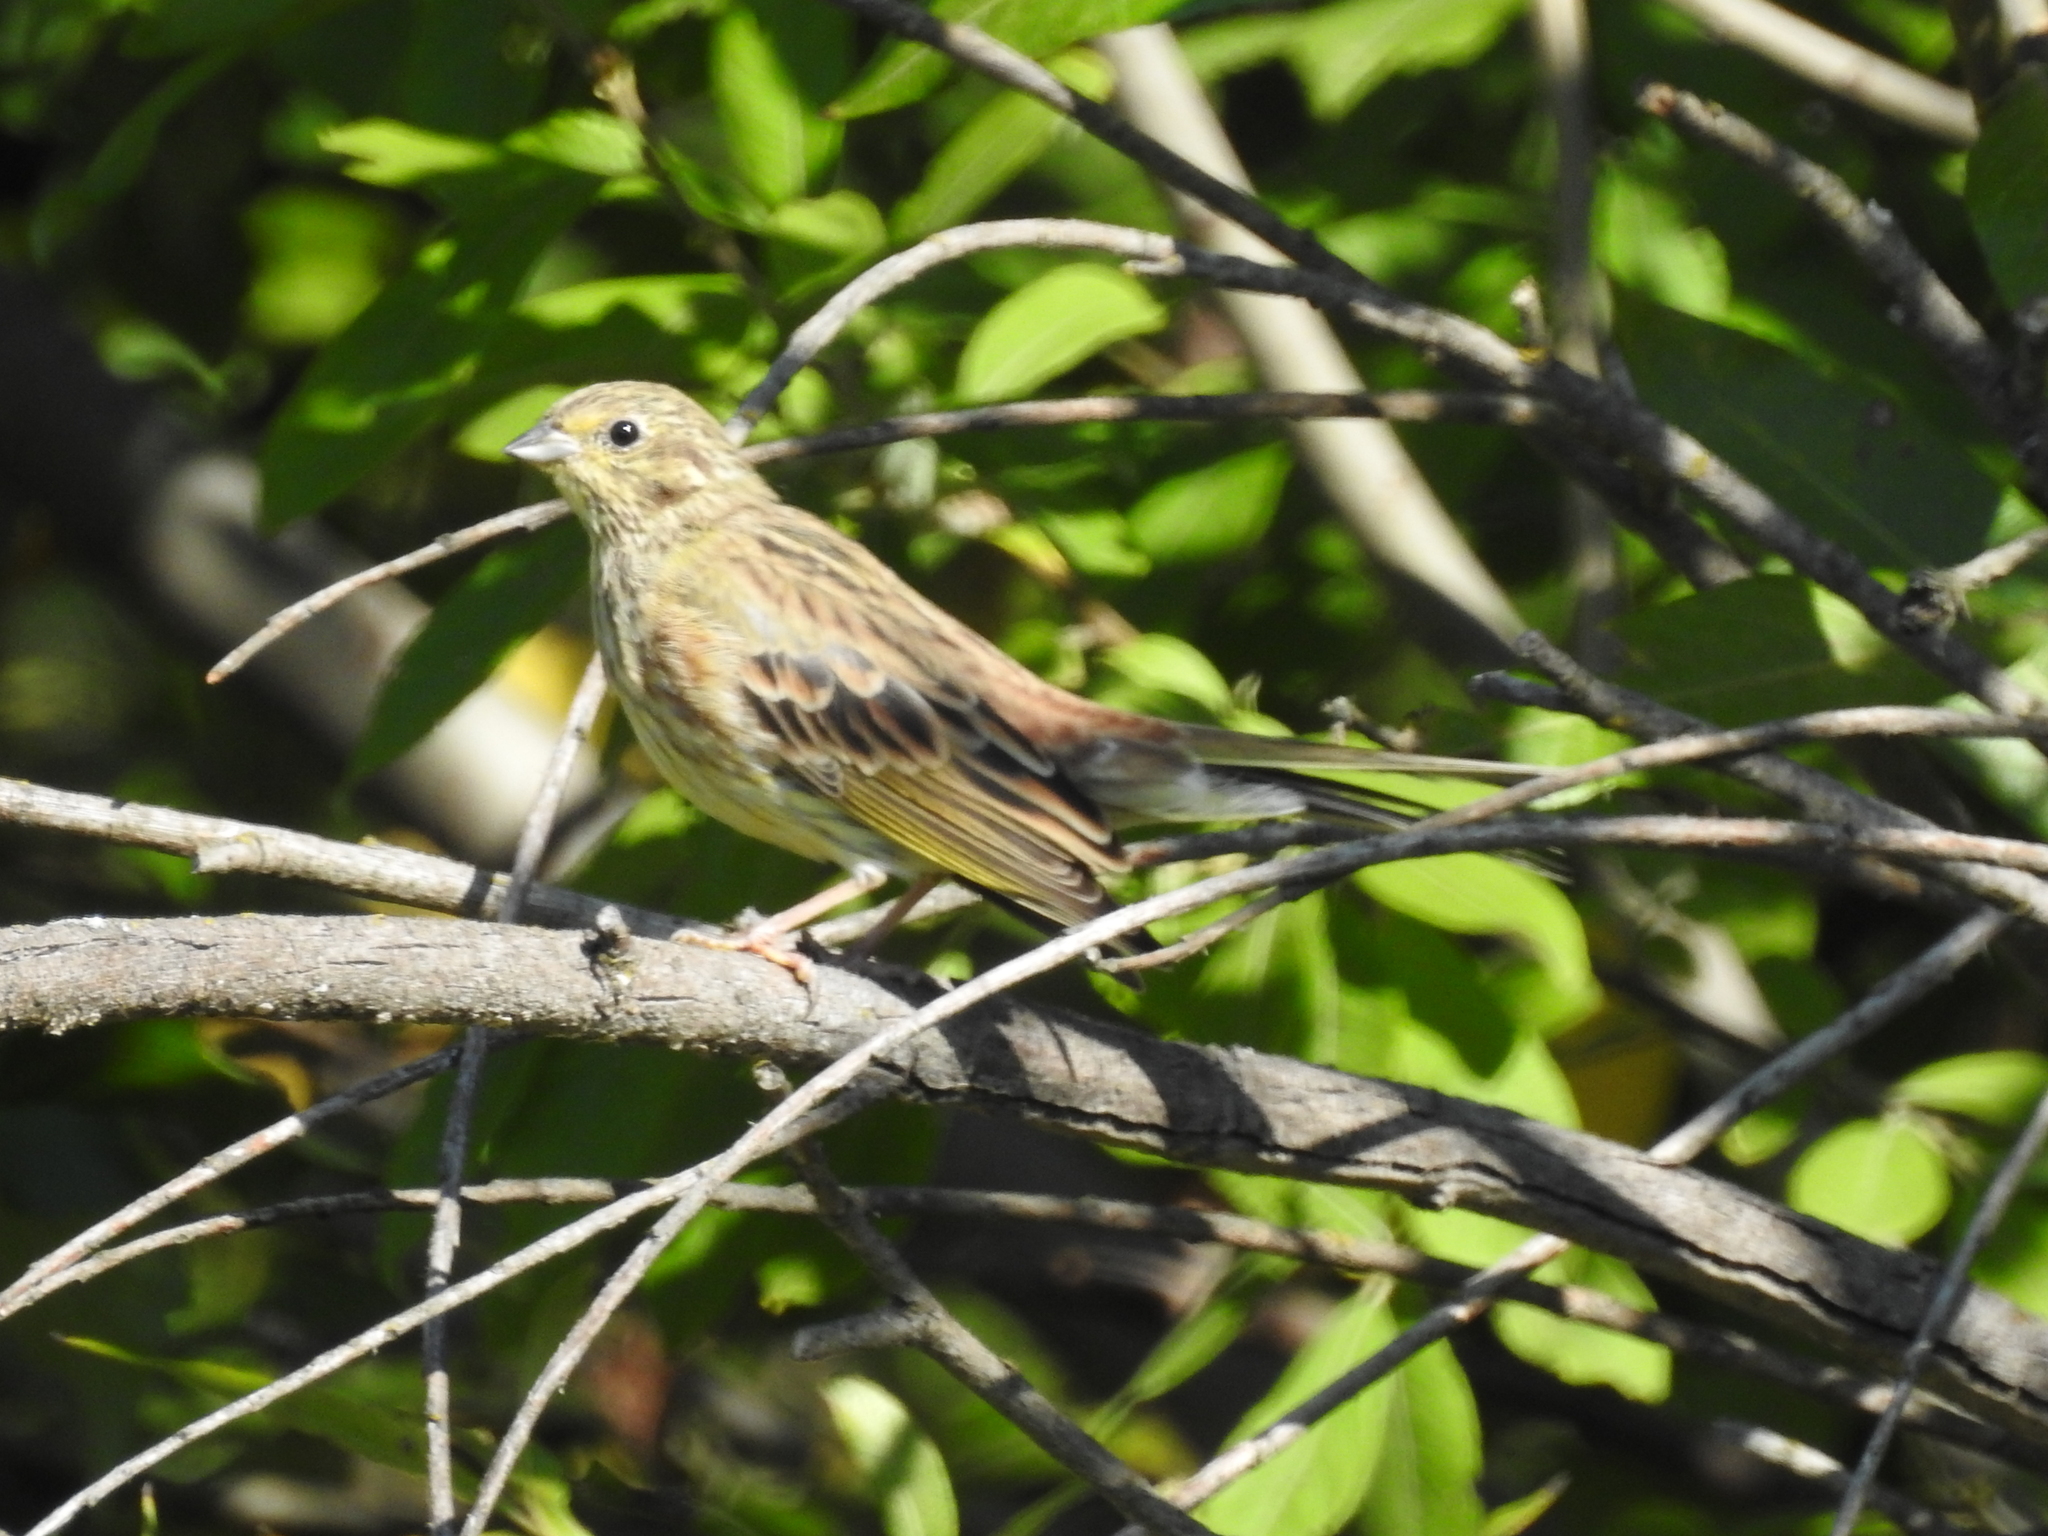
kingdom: Animalia
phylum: Chordata
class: Aves
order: Passeriformes
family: Emberizidae
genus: Emberiza
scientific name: Emberiza citrinella
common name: Yellowhammer
